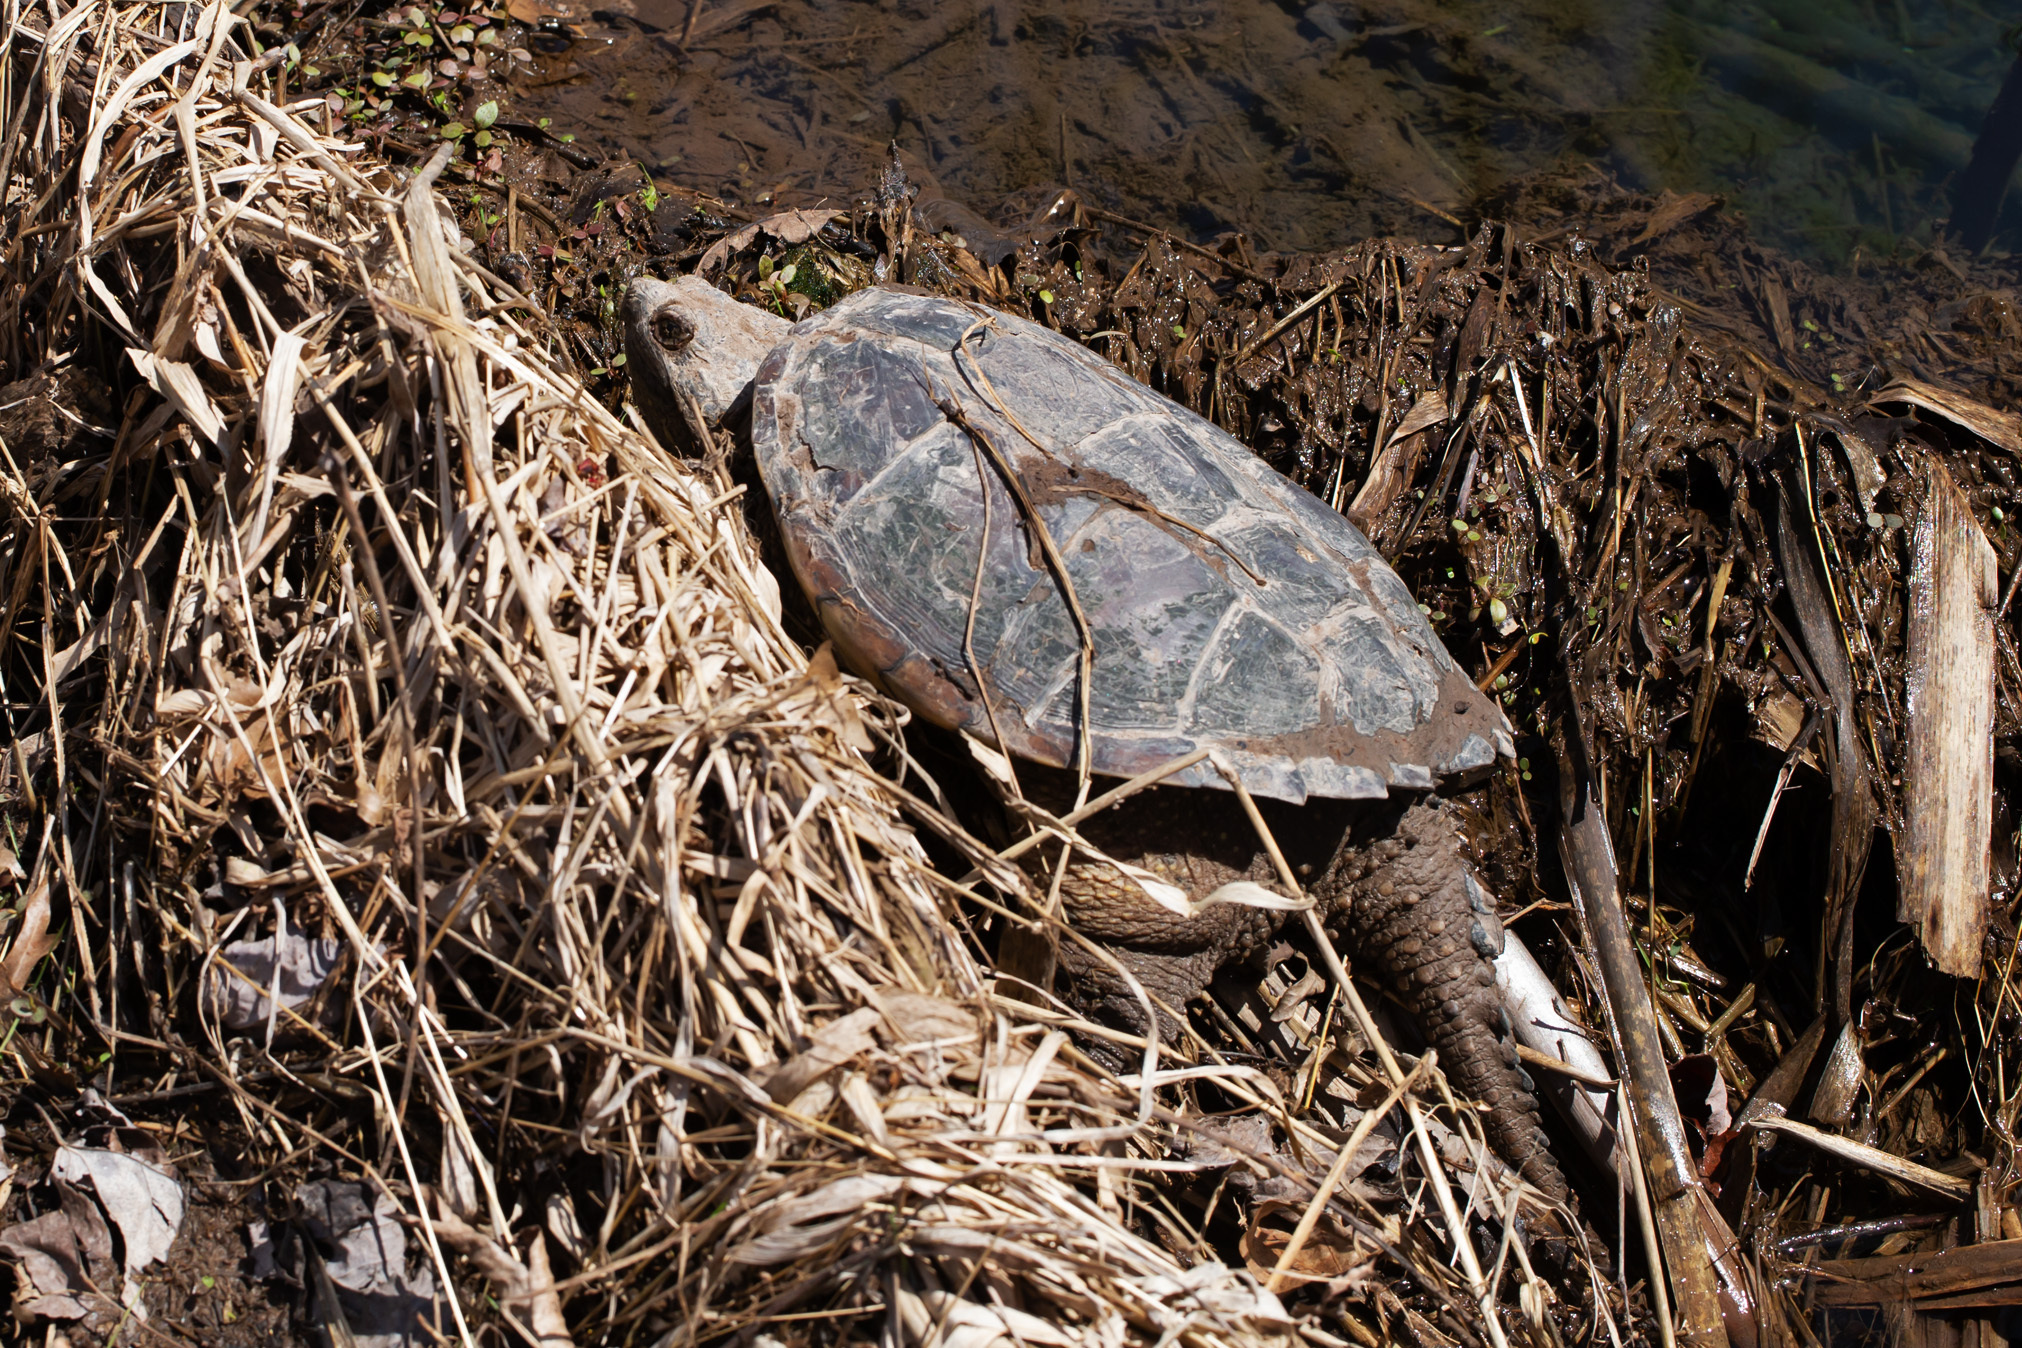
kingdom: Animalia
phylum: Chordata
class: Testudines
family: Chelydridae
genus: Chelydra
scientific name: Chelydra serpentina
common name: Common snapping turtle
